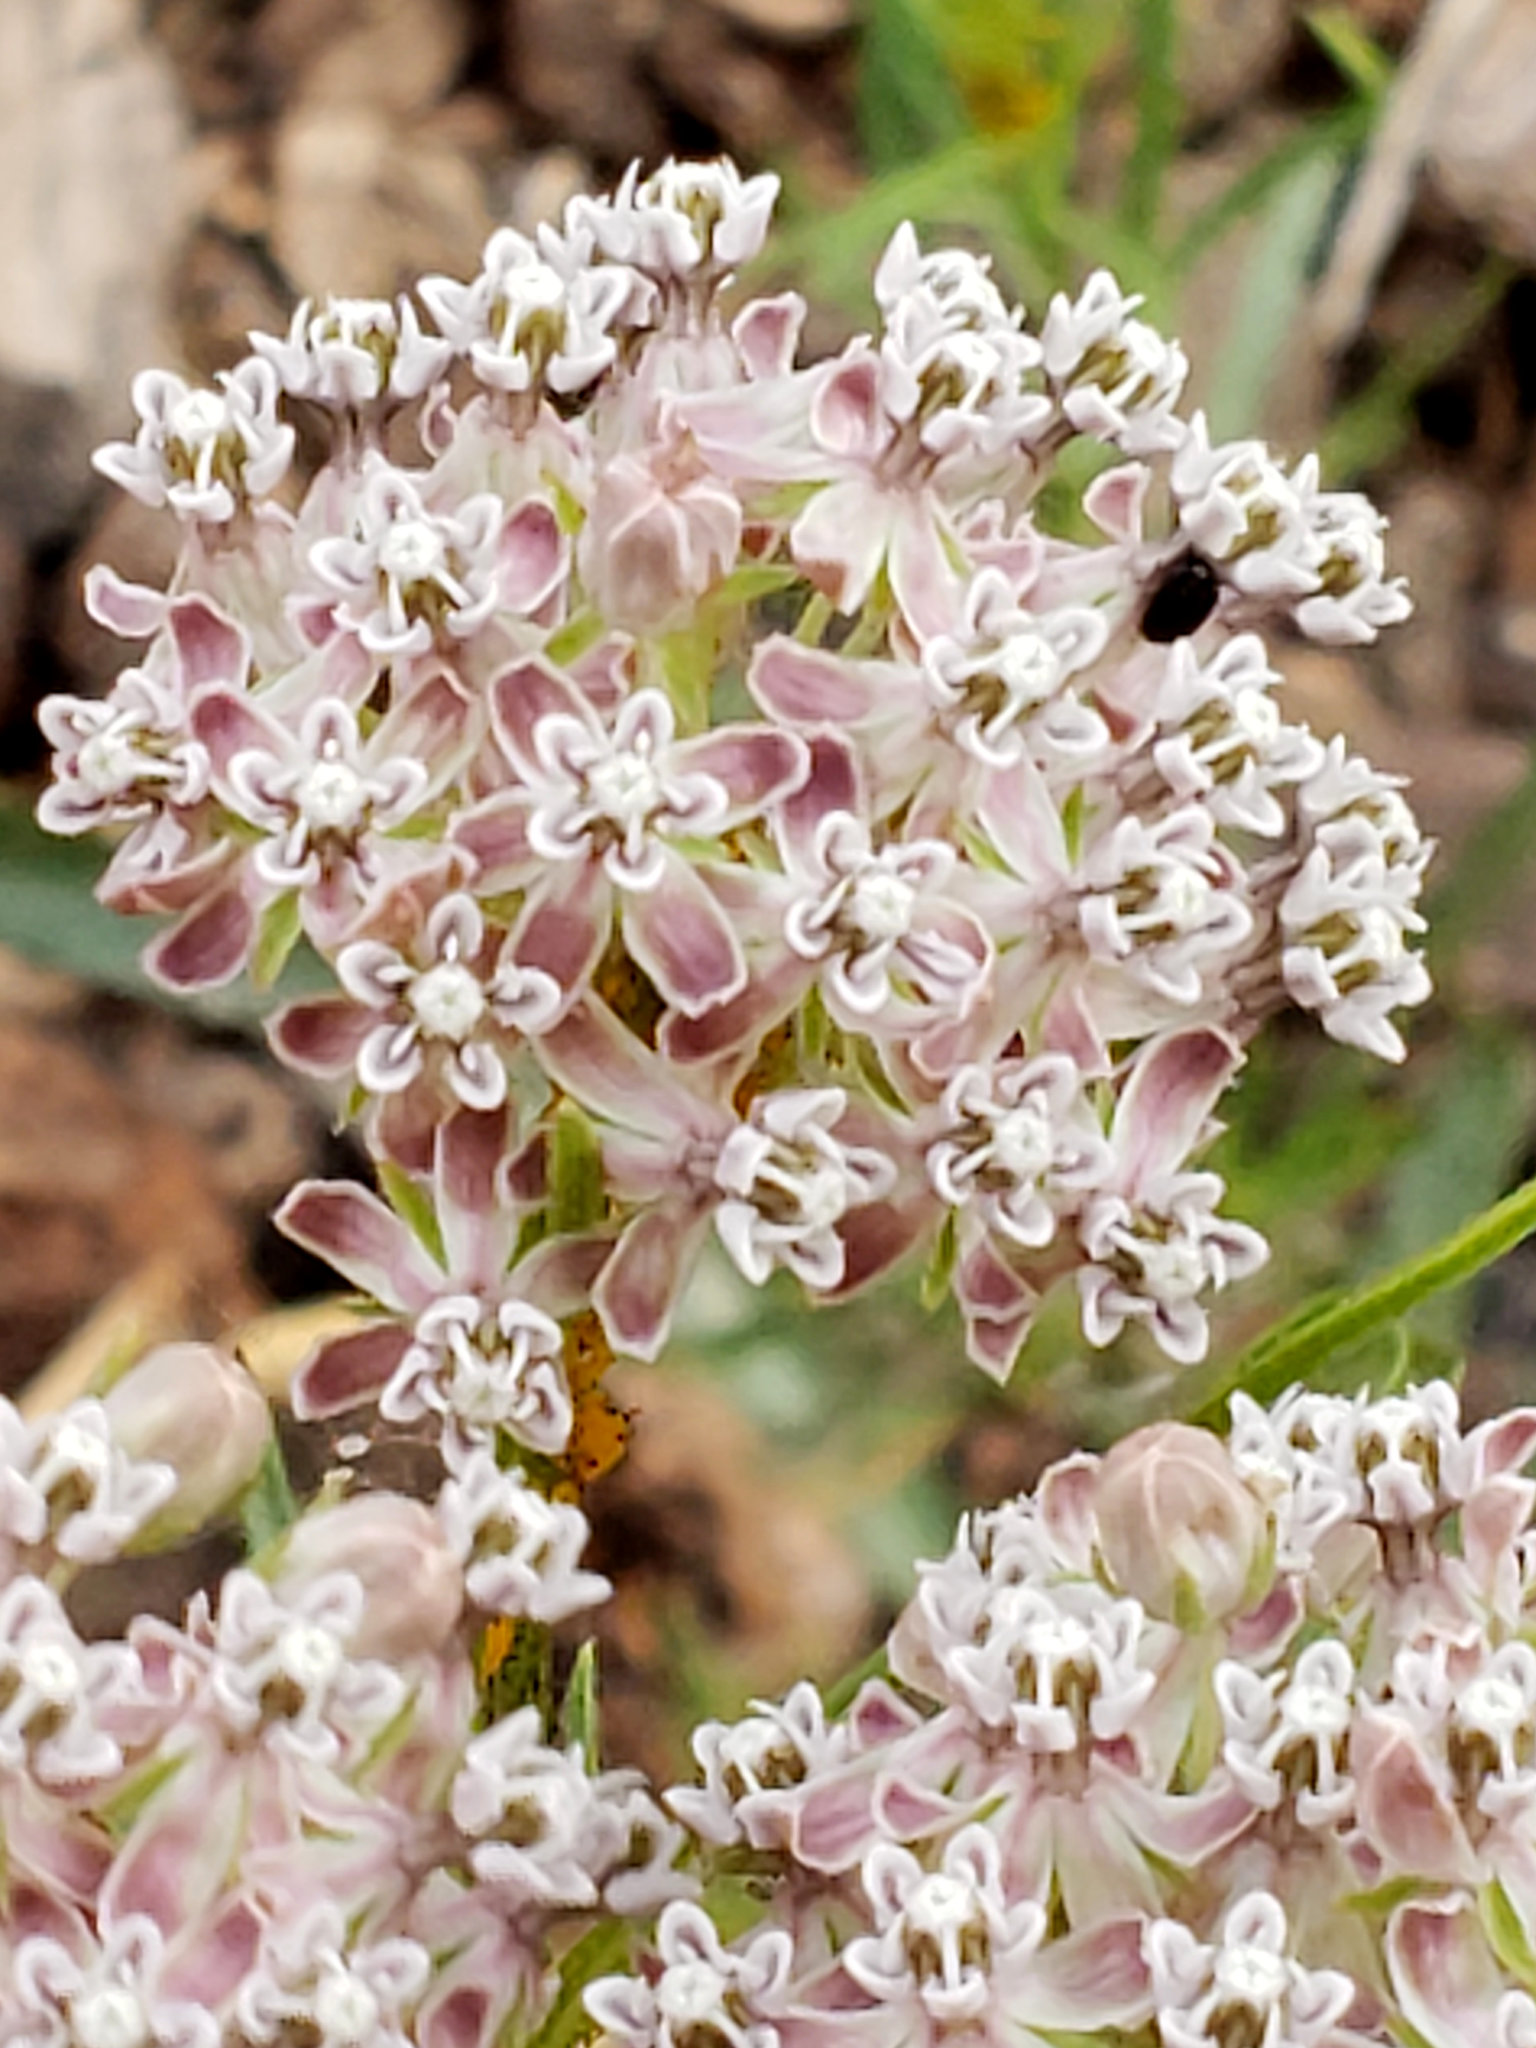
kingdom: Plantae
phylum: Tracheophyta
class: Magnoliopsida
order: Gentianales
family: Apocynaceae
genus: Asclepias
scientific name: Asclepias fascicularis
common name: Mexican milkweed
